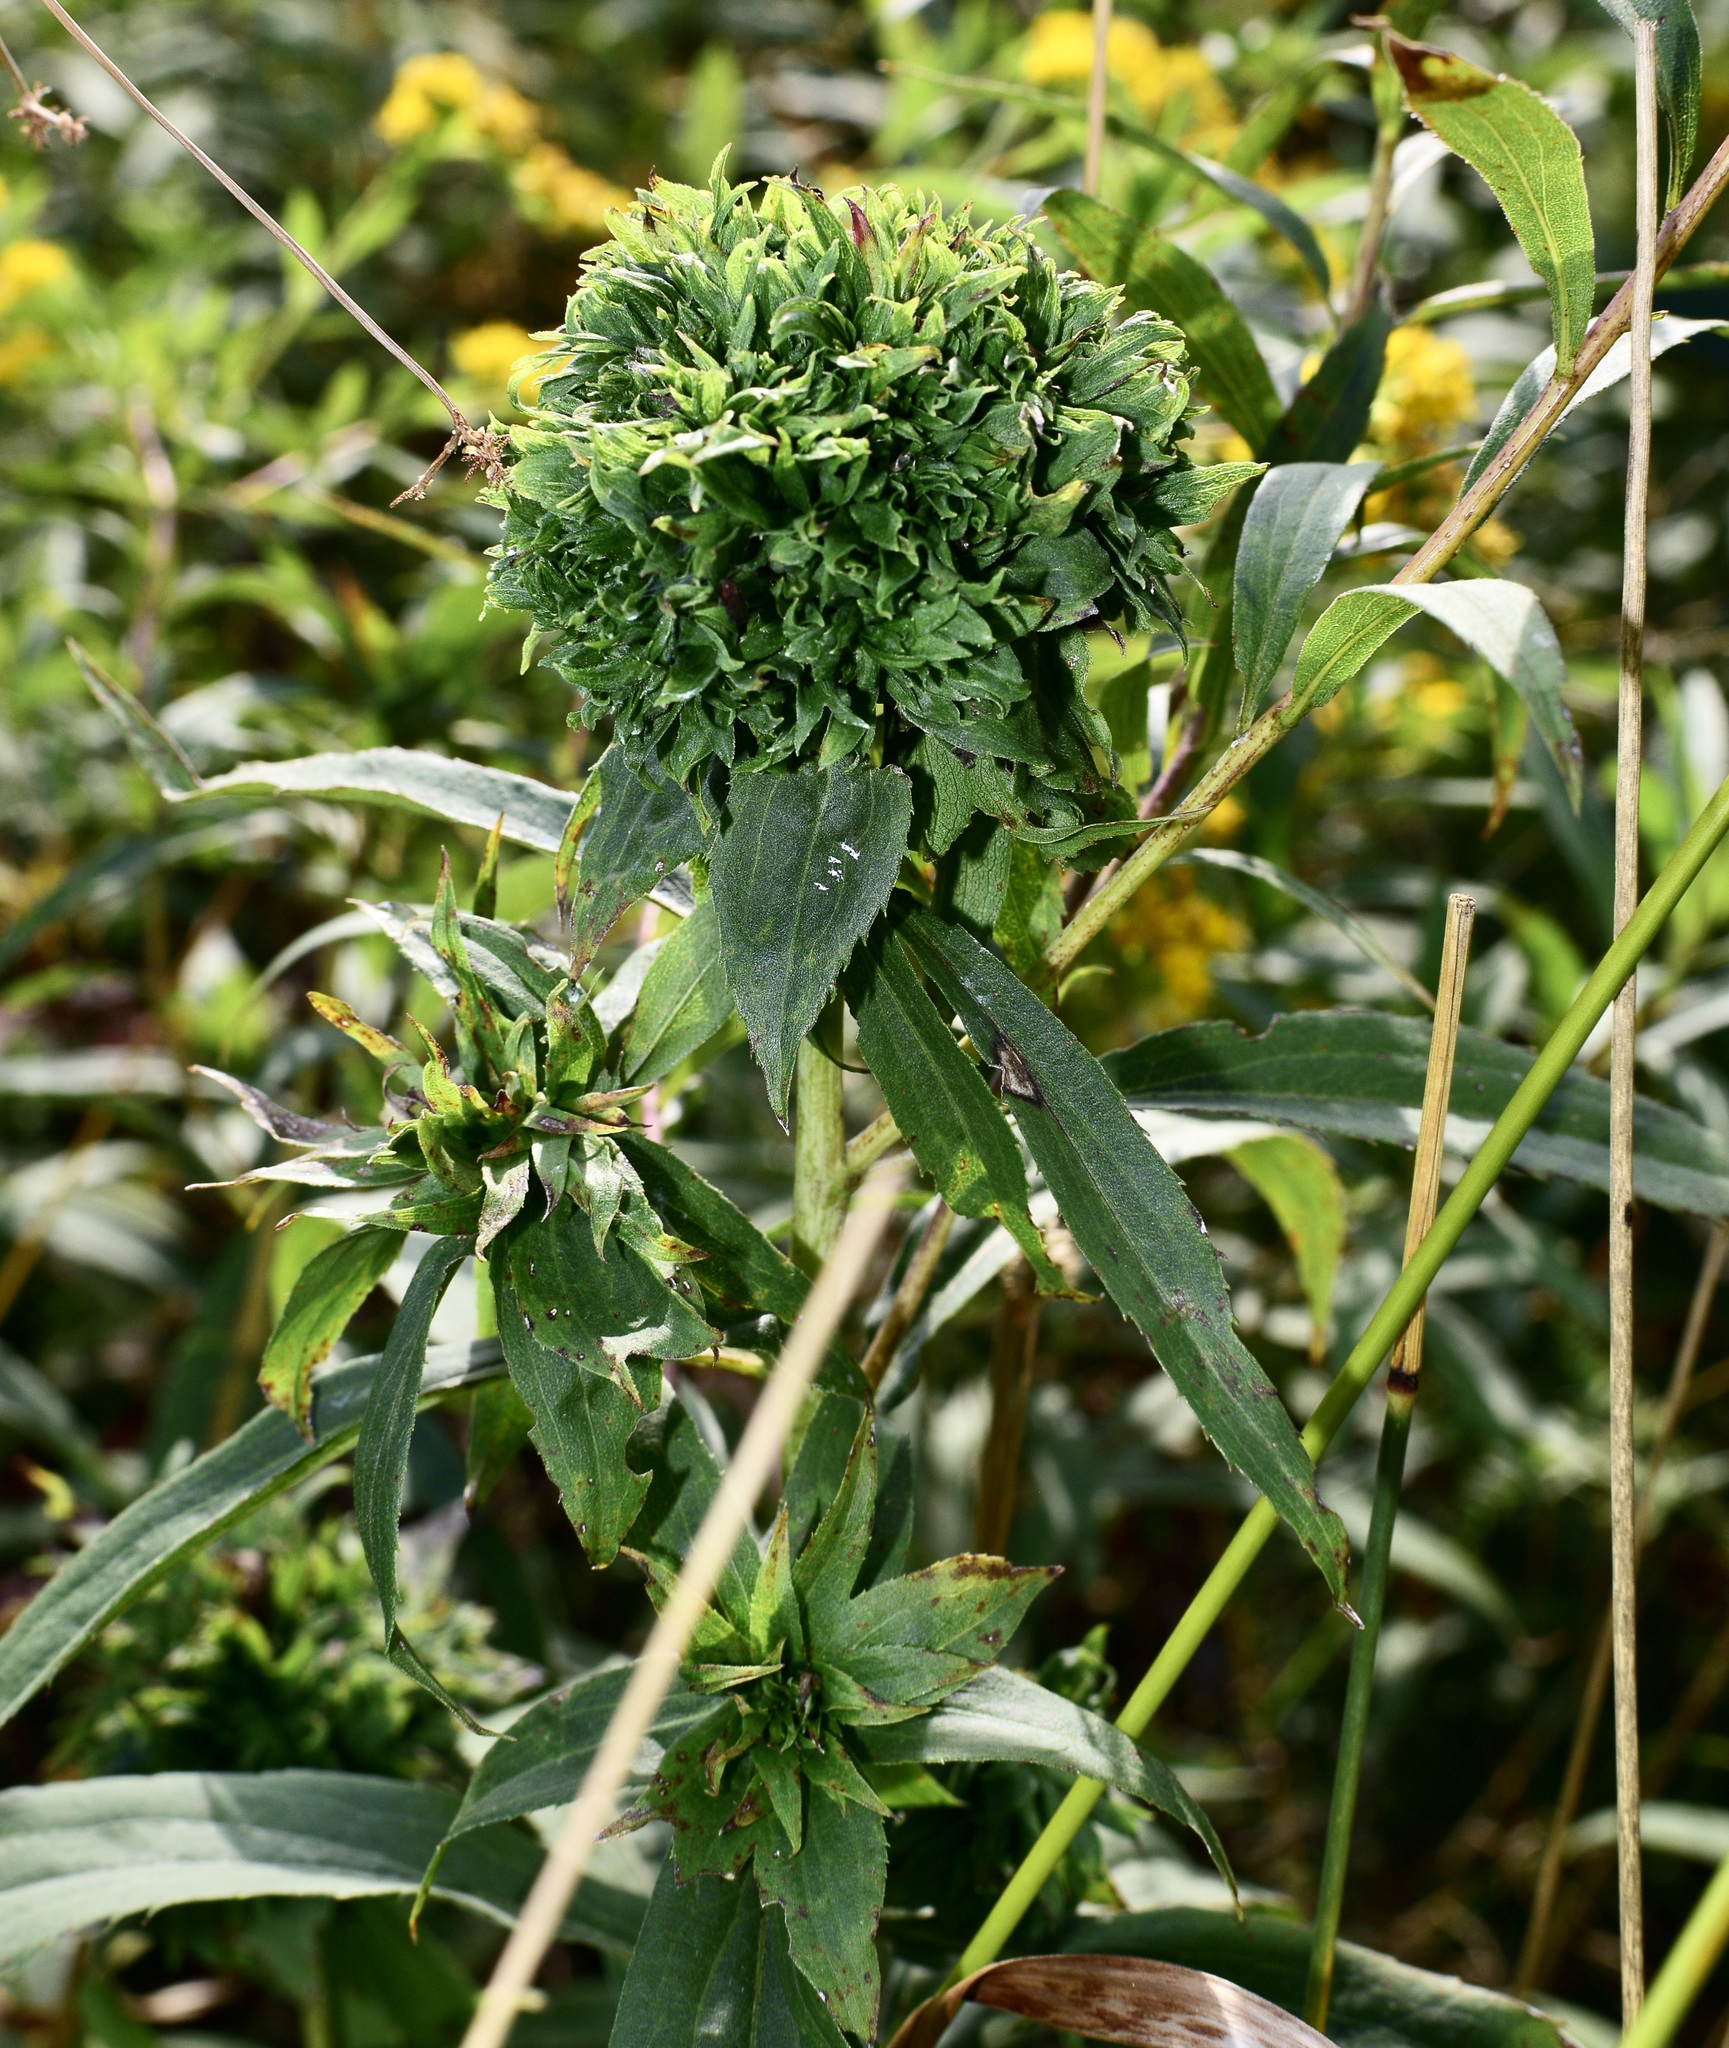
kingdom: Animalia
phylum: Arthropoda
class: Insecta
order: Diptera
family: Cecidomyiidae
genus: Rhopalomyia
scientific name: Rhopalomyia capitata
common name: Giant goldenrod bunch gall midge
